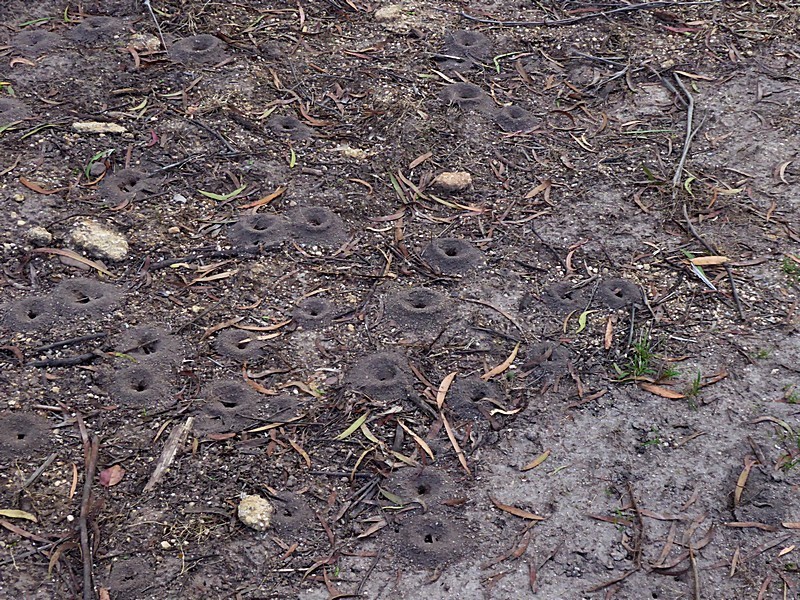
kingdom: Animalia
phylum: Arthropoda
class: Insecta
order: Hymenoptera
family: Formicidae
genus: Aphaenogaster
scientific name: Aphaenogaster longiceps
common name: Funnel ant
